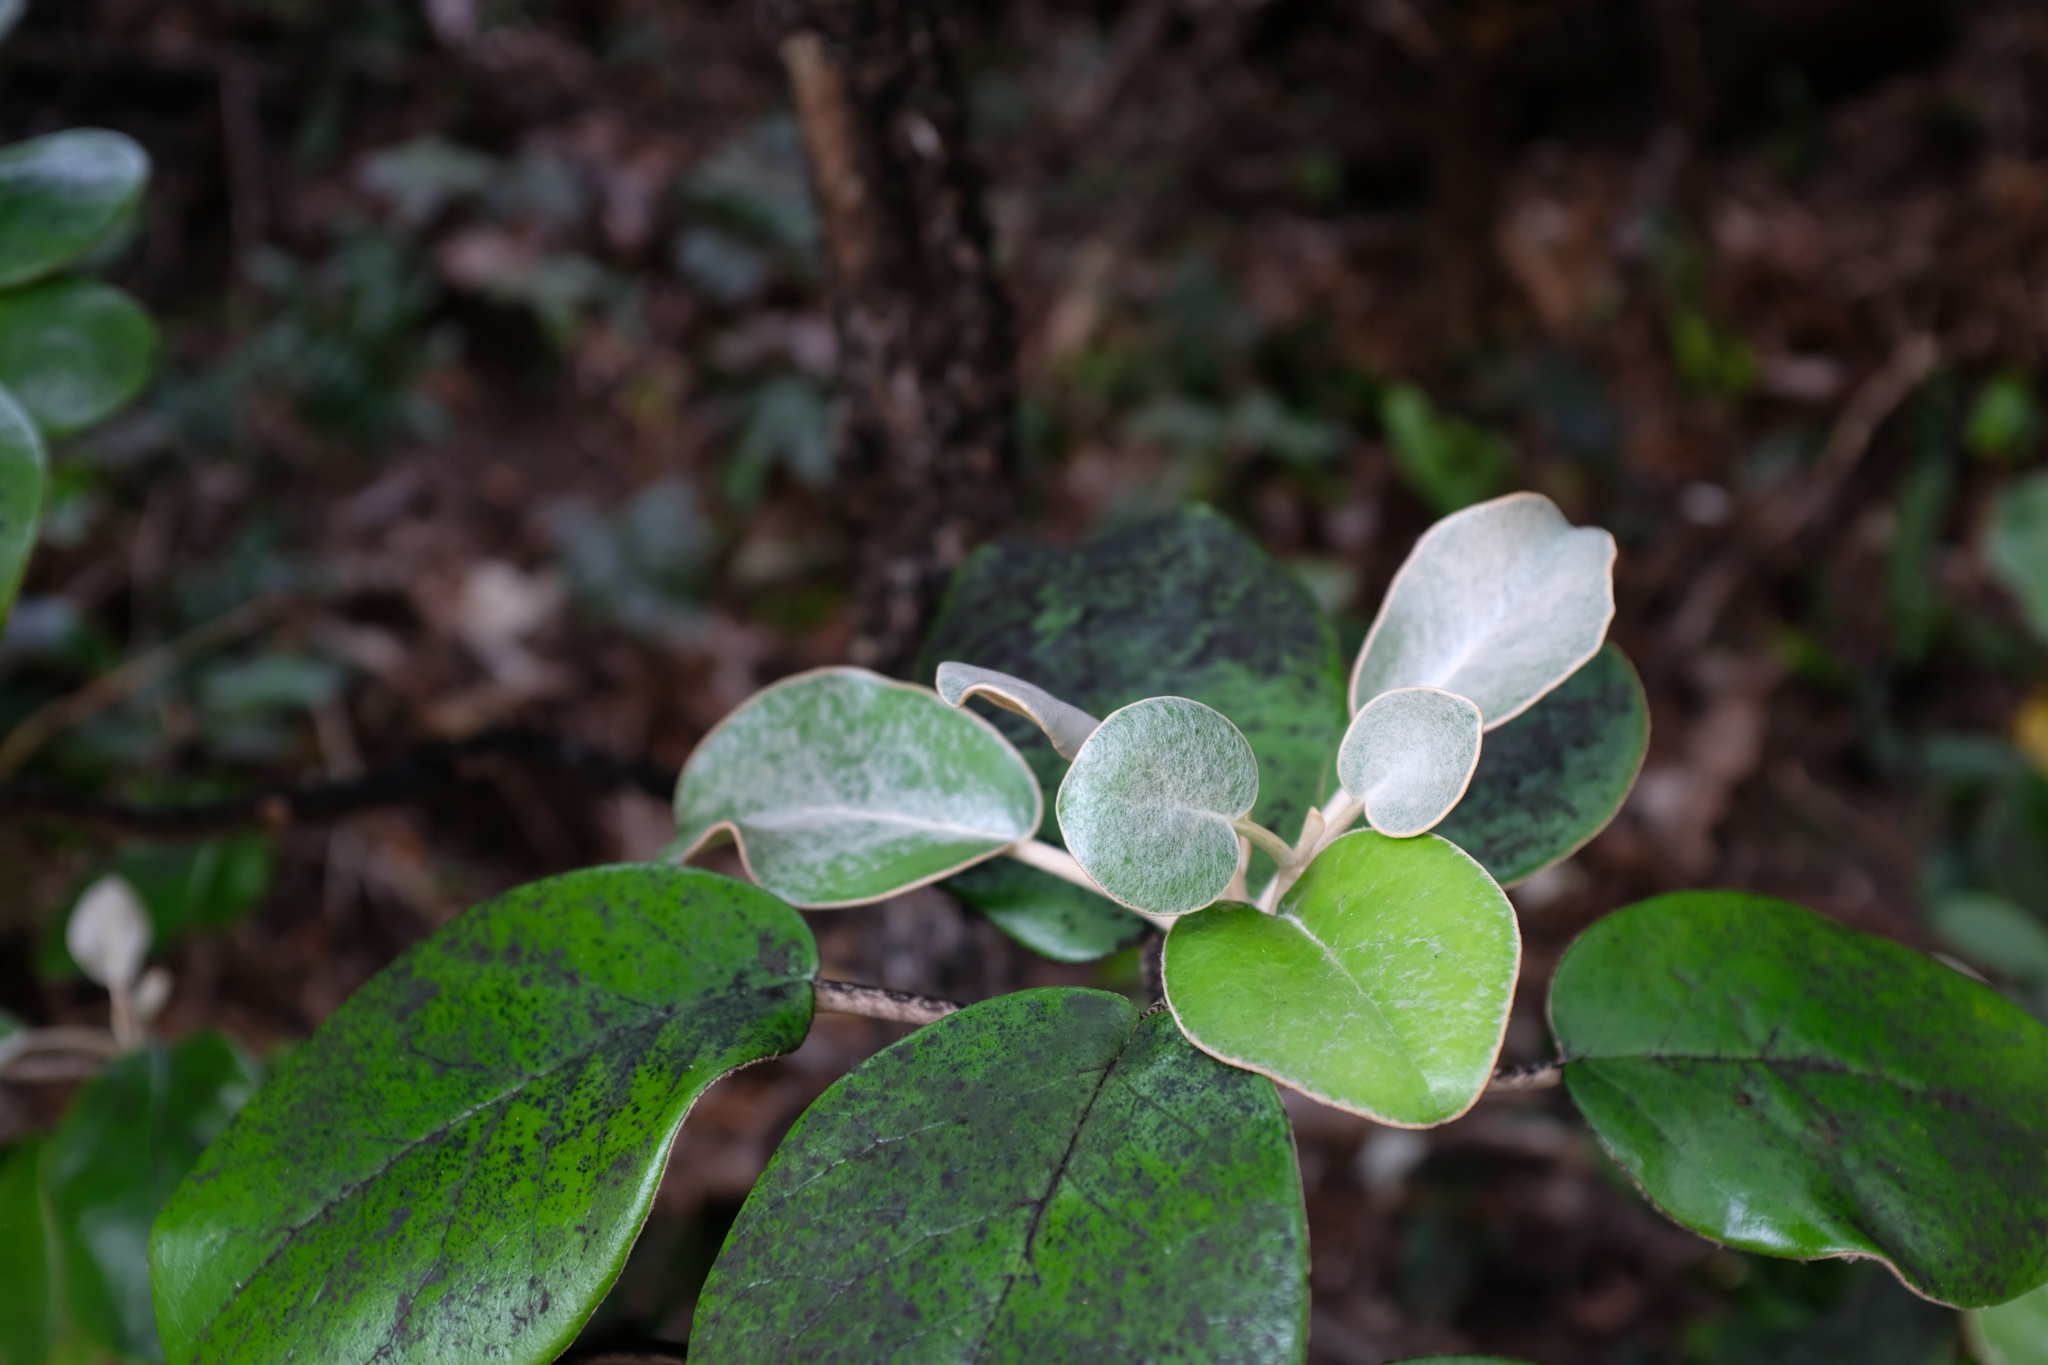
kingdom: Plantae
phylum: Tracheophyta
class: Magnoliopsida
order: Asterales
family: Asteraceae
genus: Brachyglottis
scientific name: Brachyglottis rotundifolia
